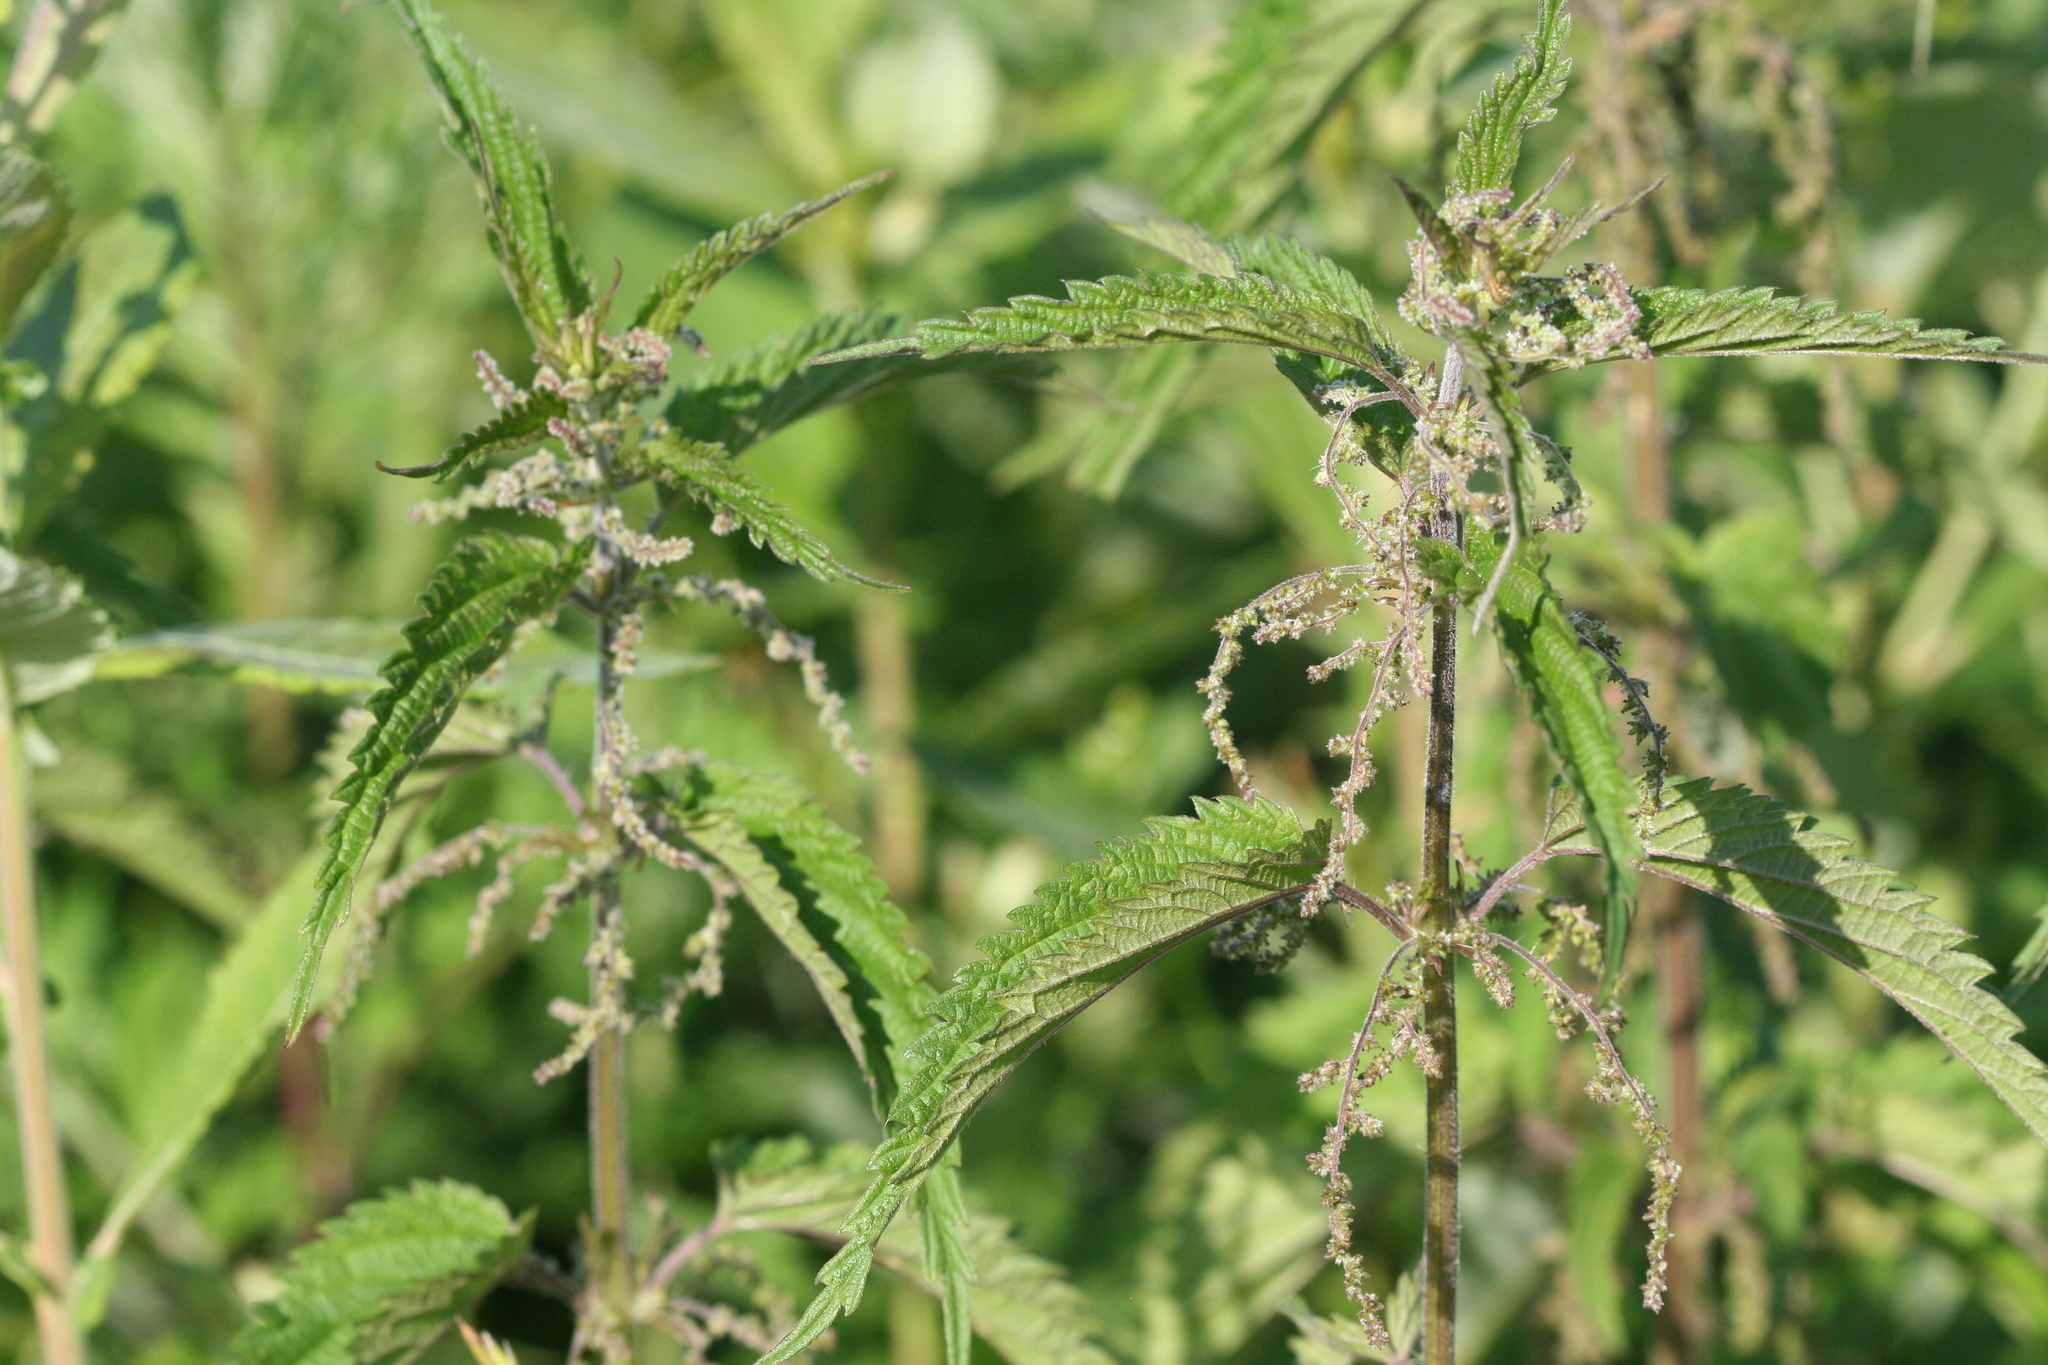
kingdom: Plantae
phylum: Tracheophyta
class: Magnoliopsida
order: Rosales
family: Urticaceae
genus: Urtica
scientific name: Urtica dioica
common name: Common nettle
